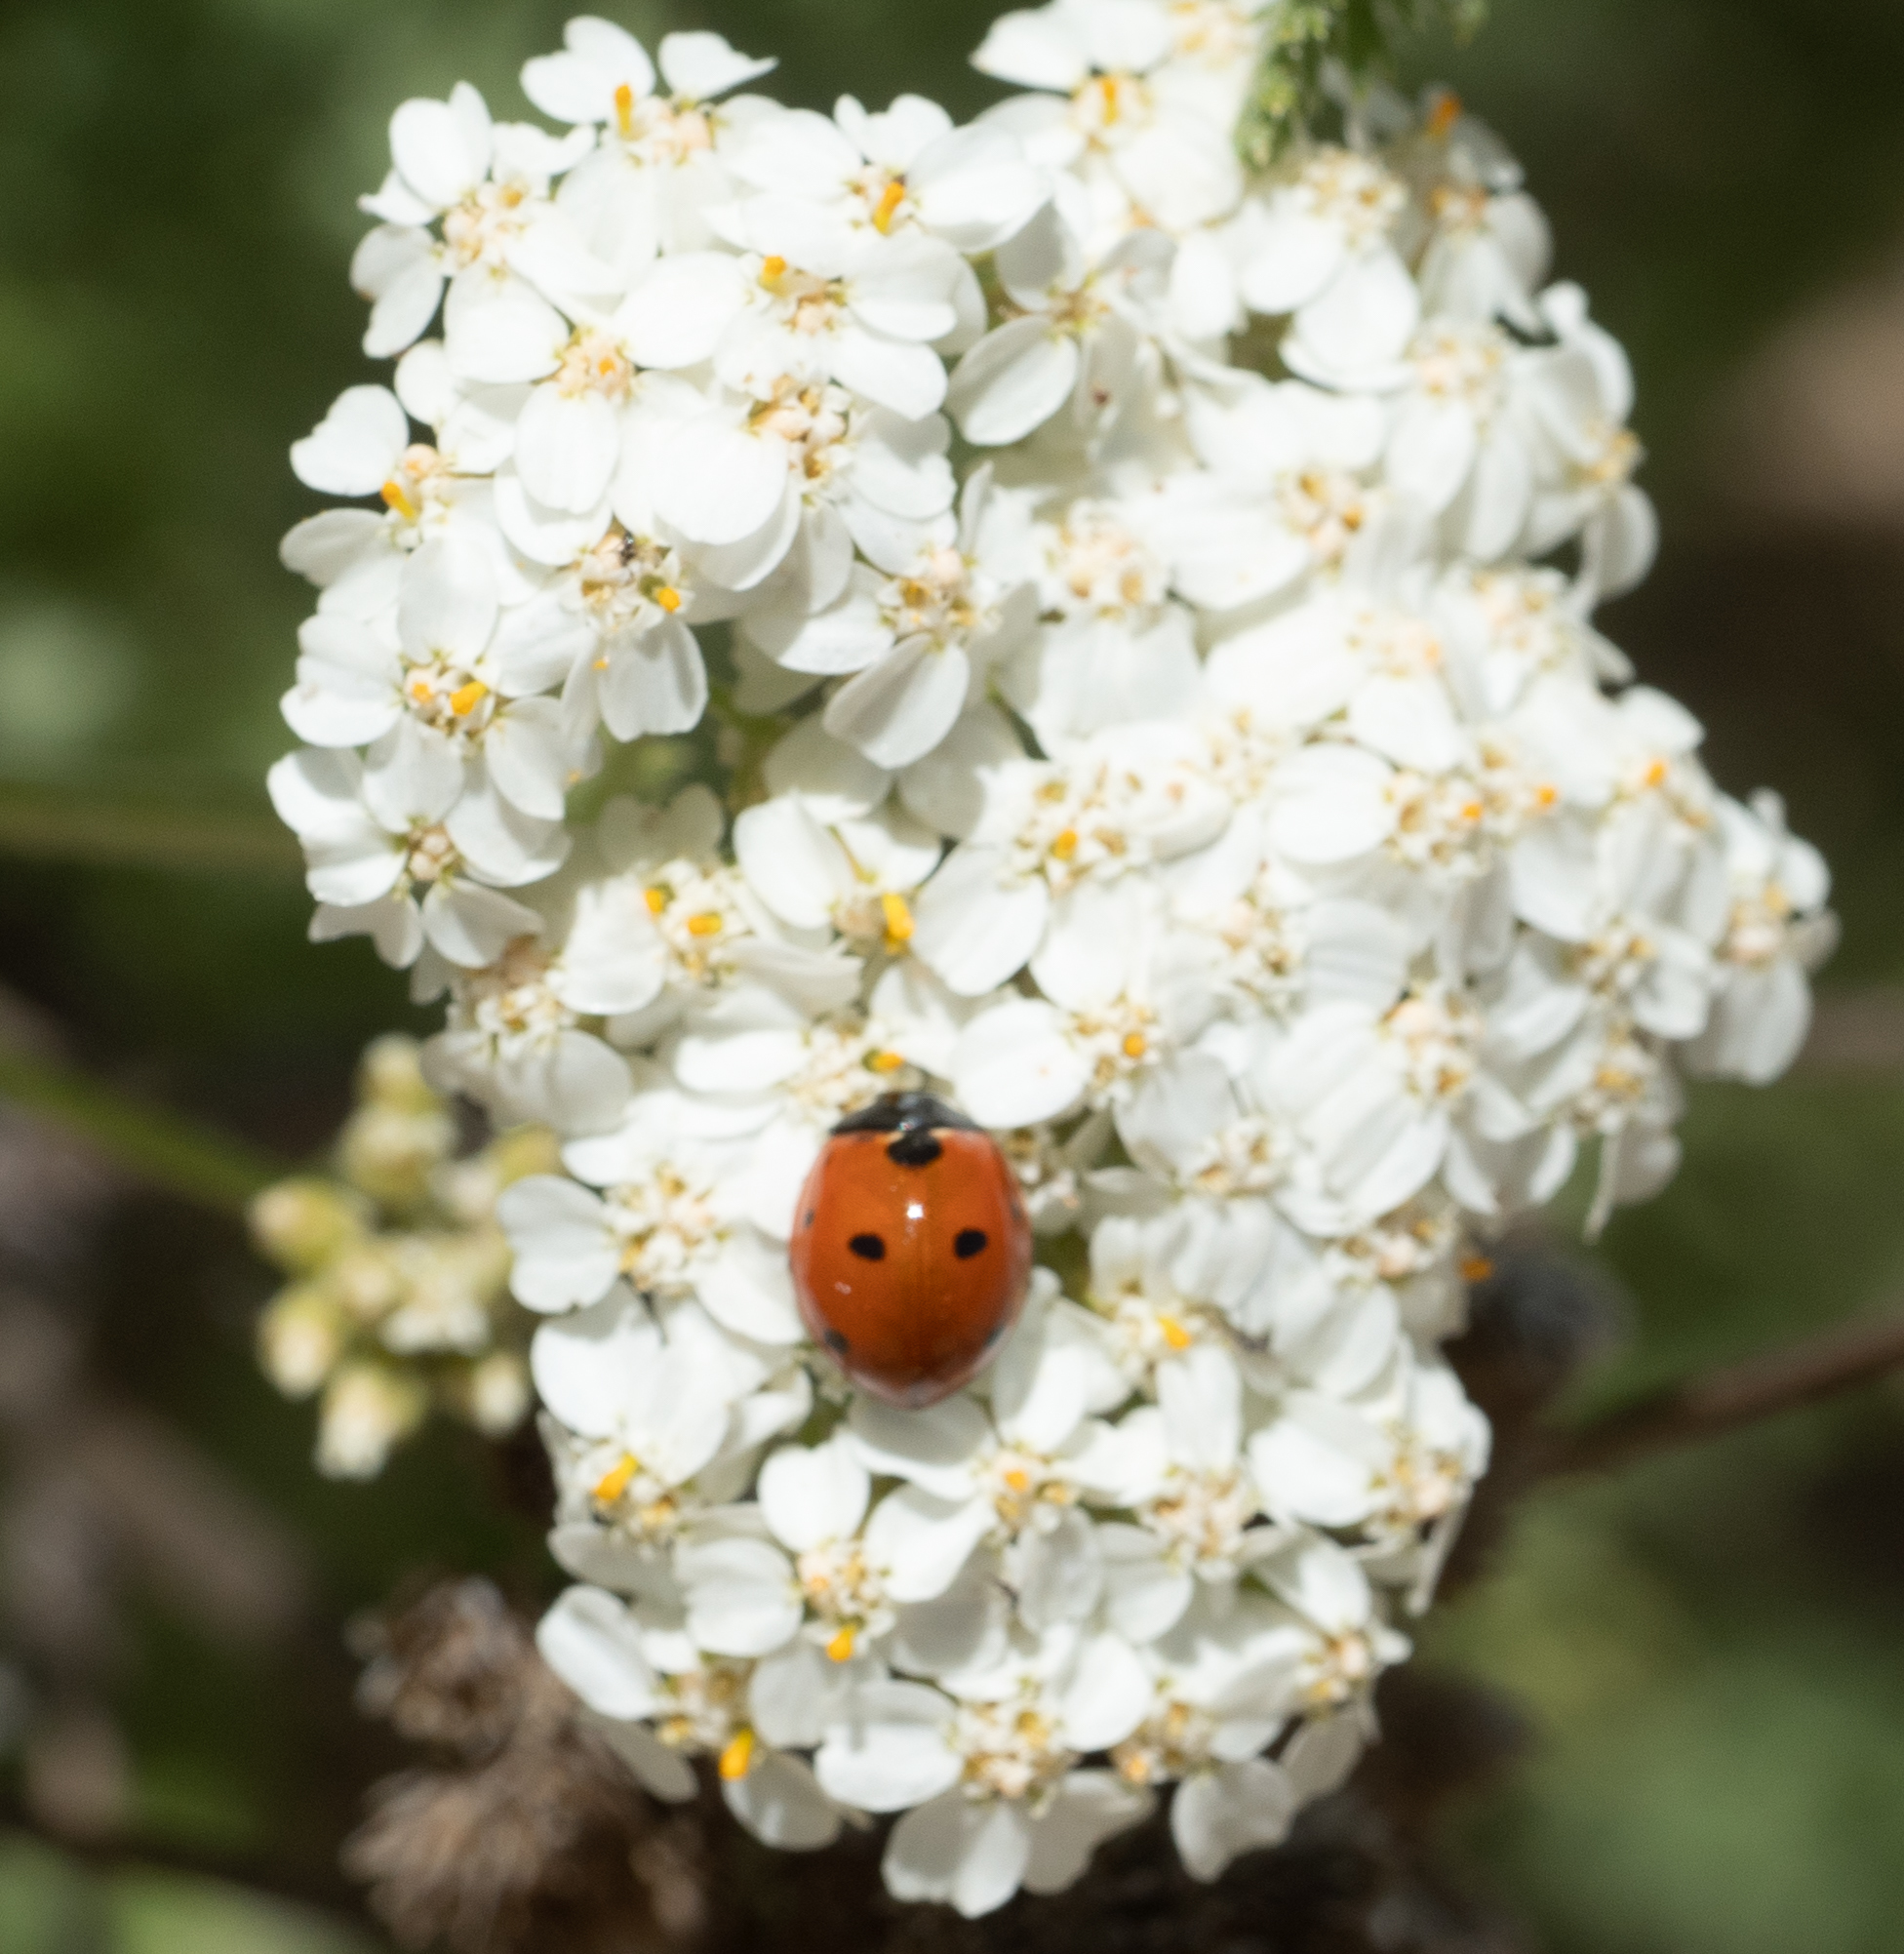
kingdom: Animalia
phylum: Arthropoda
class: Insecta
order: Coleoptera
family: Coccinellidae
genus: Coccinella
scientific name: Coccinella septempunctata
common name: Sevenspotted lady beetle
